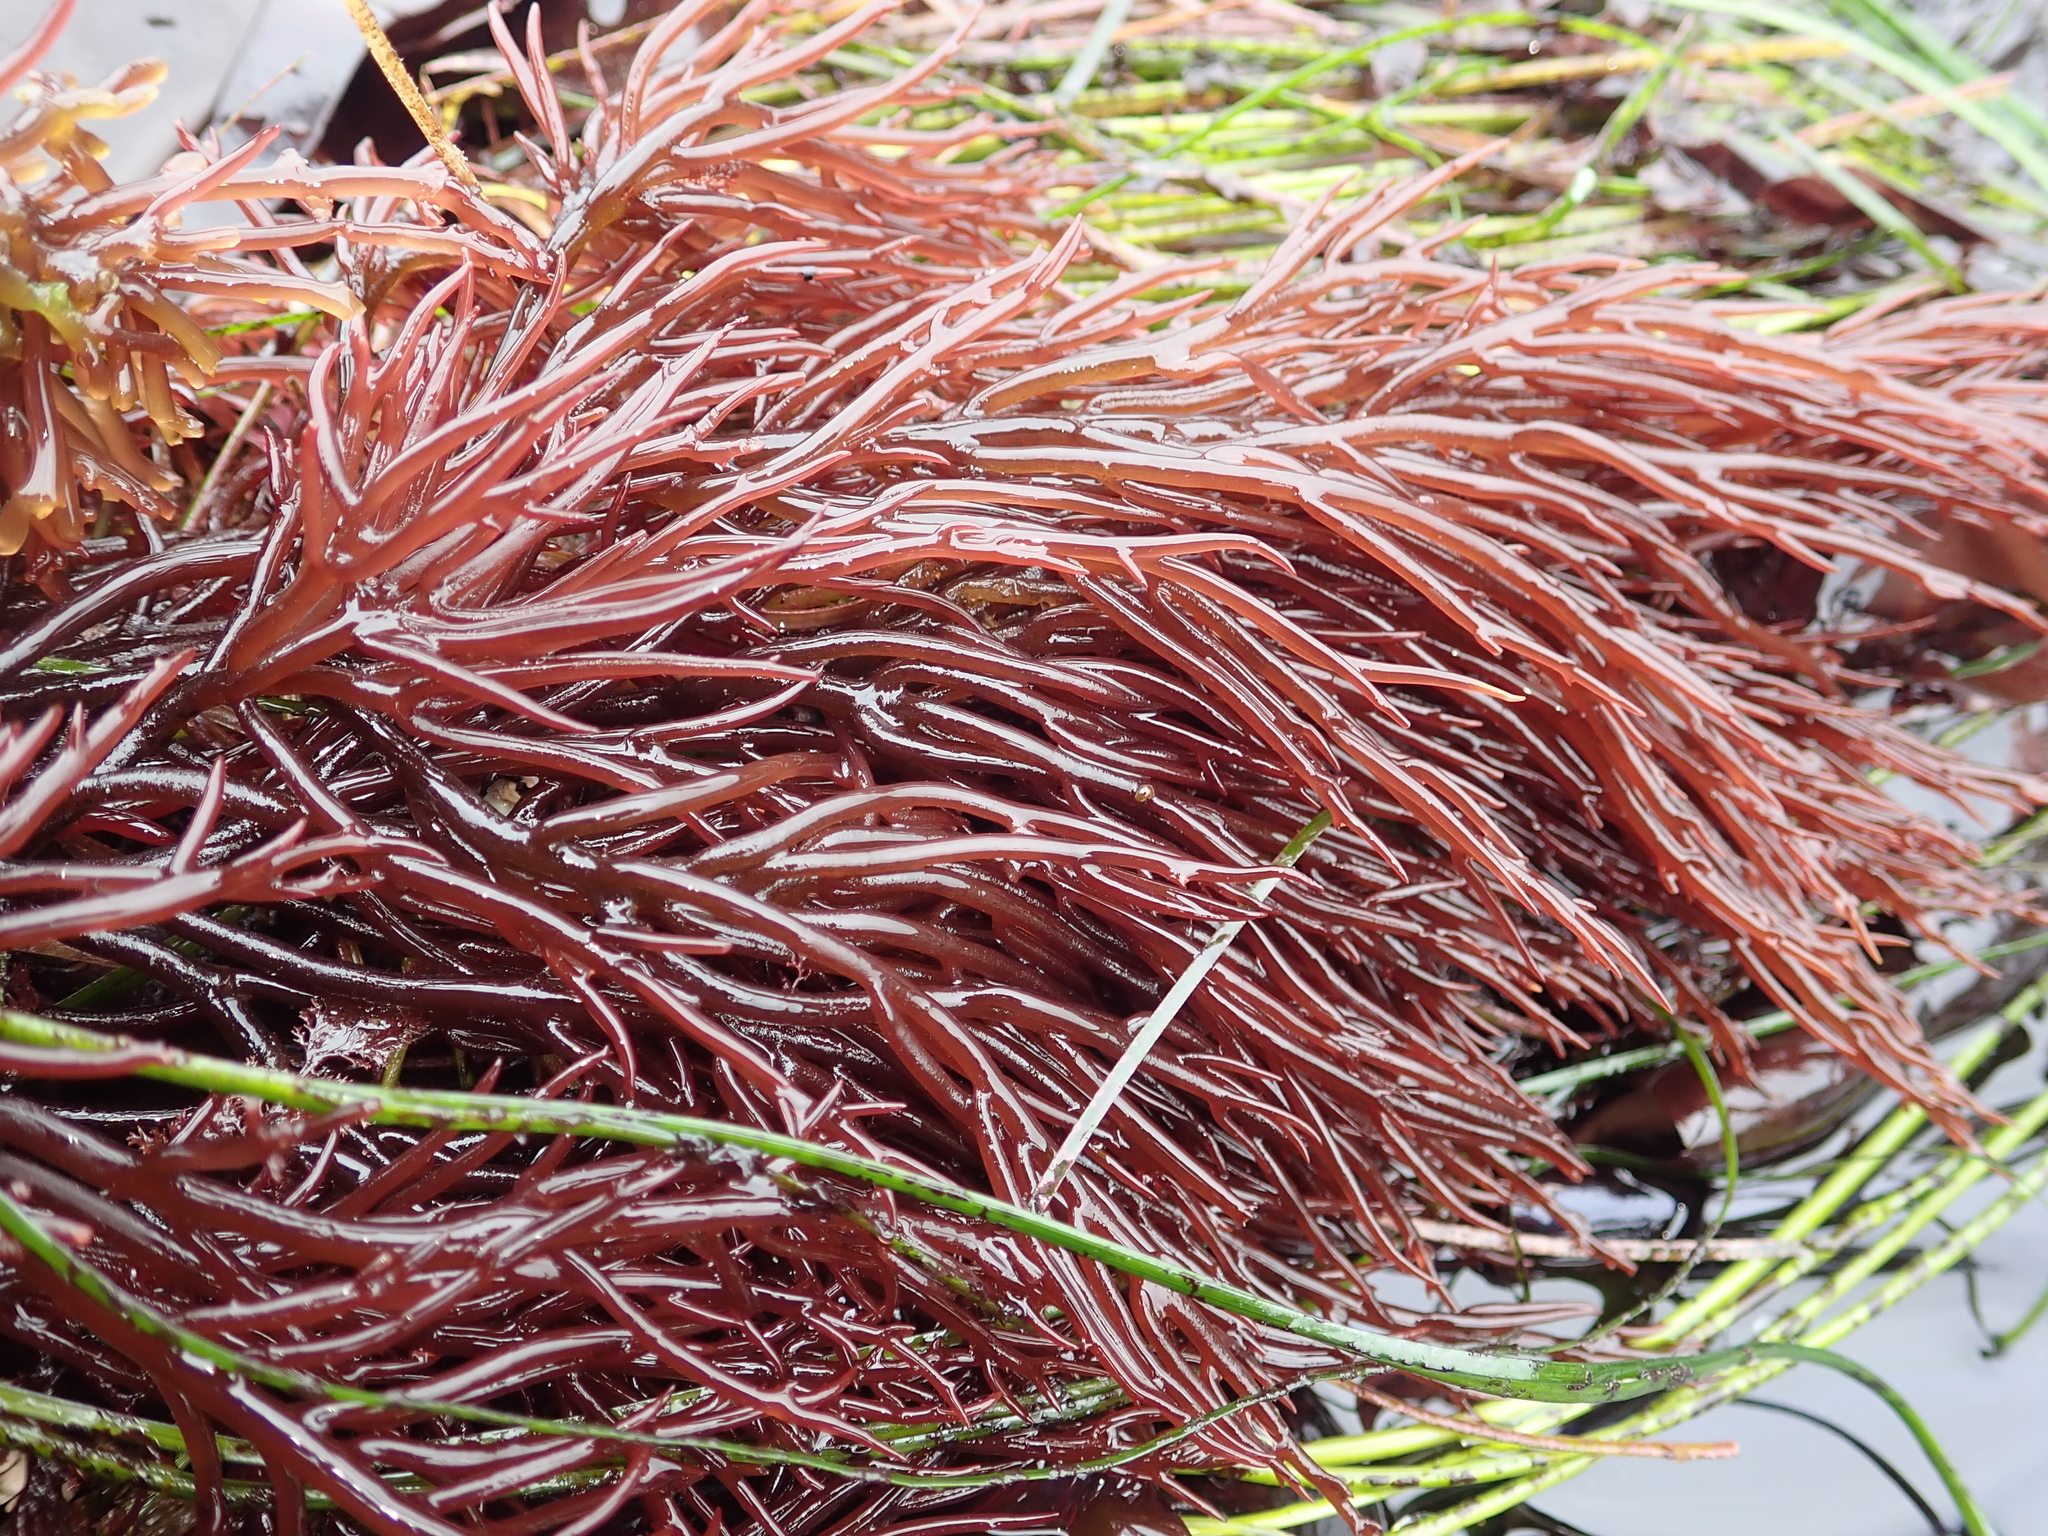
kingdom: Plantae
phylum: Rhodophyta
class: Florideophyceae
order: Gigartinales
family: Solieriaceae
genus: Sarcodiotheca
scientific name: Sarcodiotheca gaudichaudii
